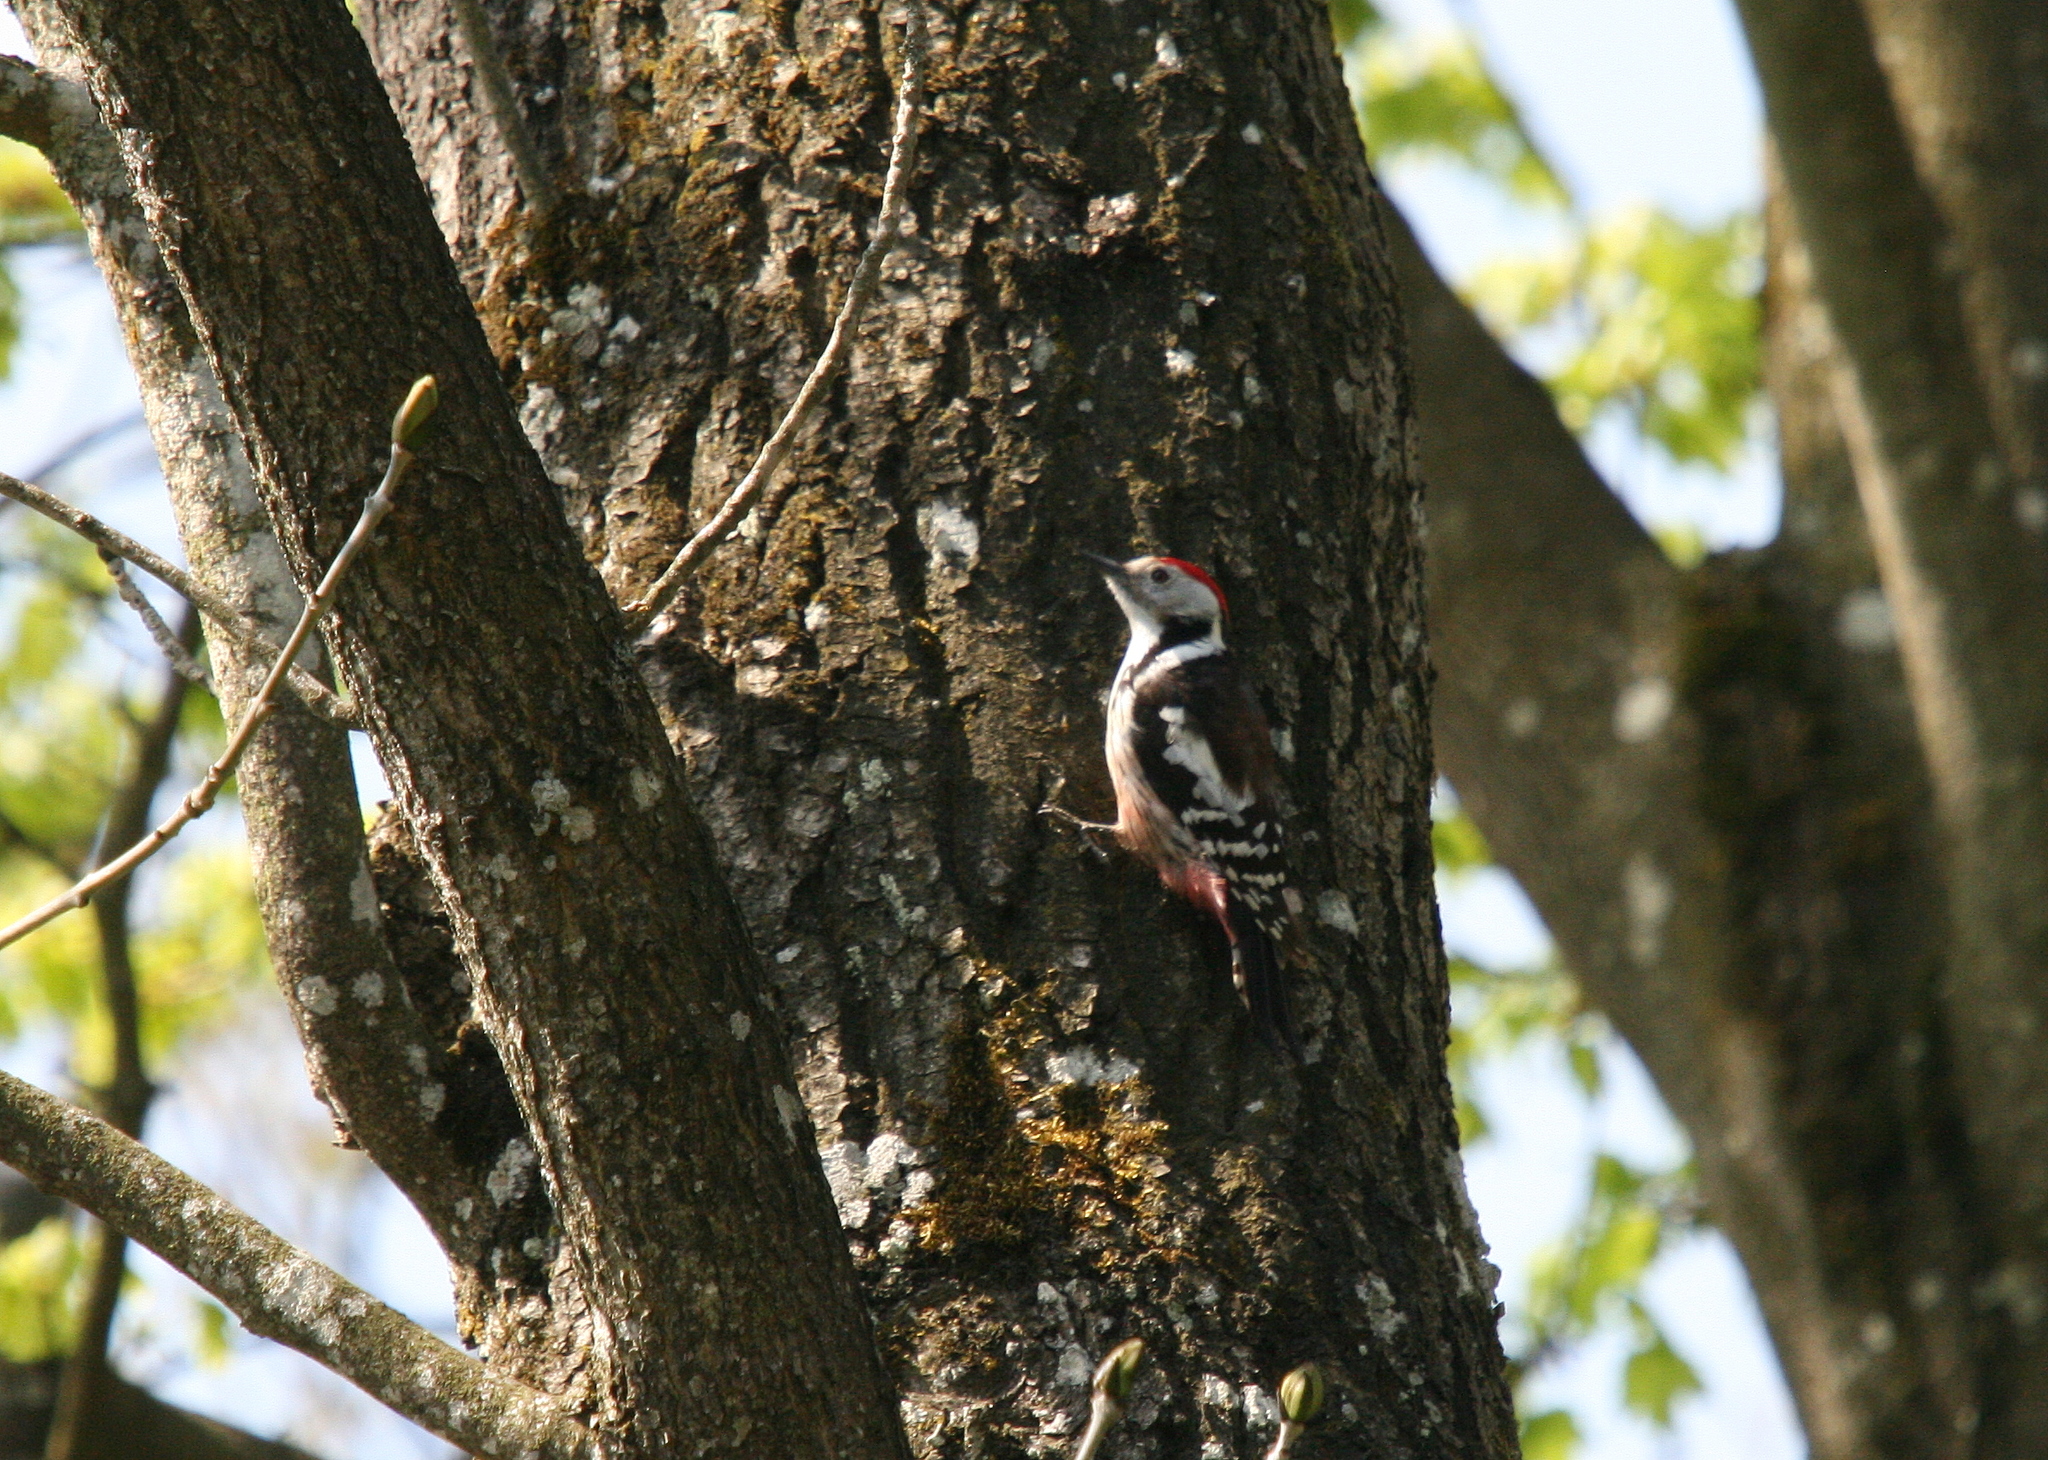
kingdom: Animalia
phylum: Chordata
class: Aves
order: Piciformes
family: Picidae
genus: Dendrocoptes
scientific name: Dendrocoptes medius
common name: Middle spotted woodpecker
